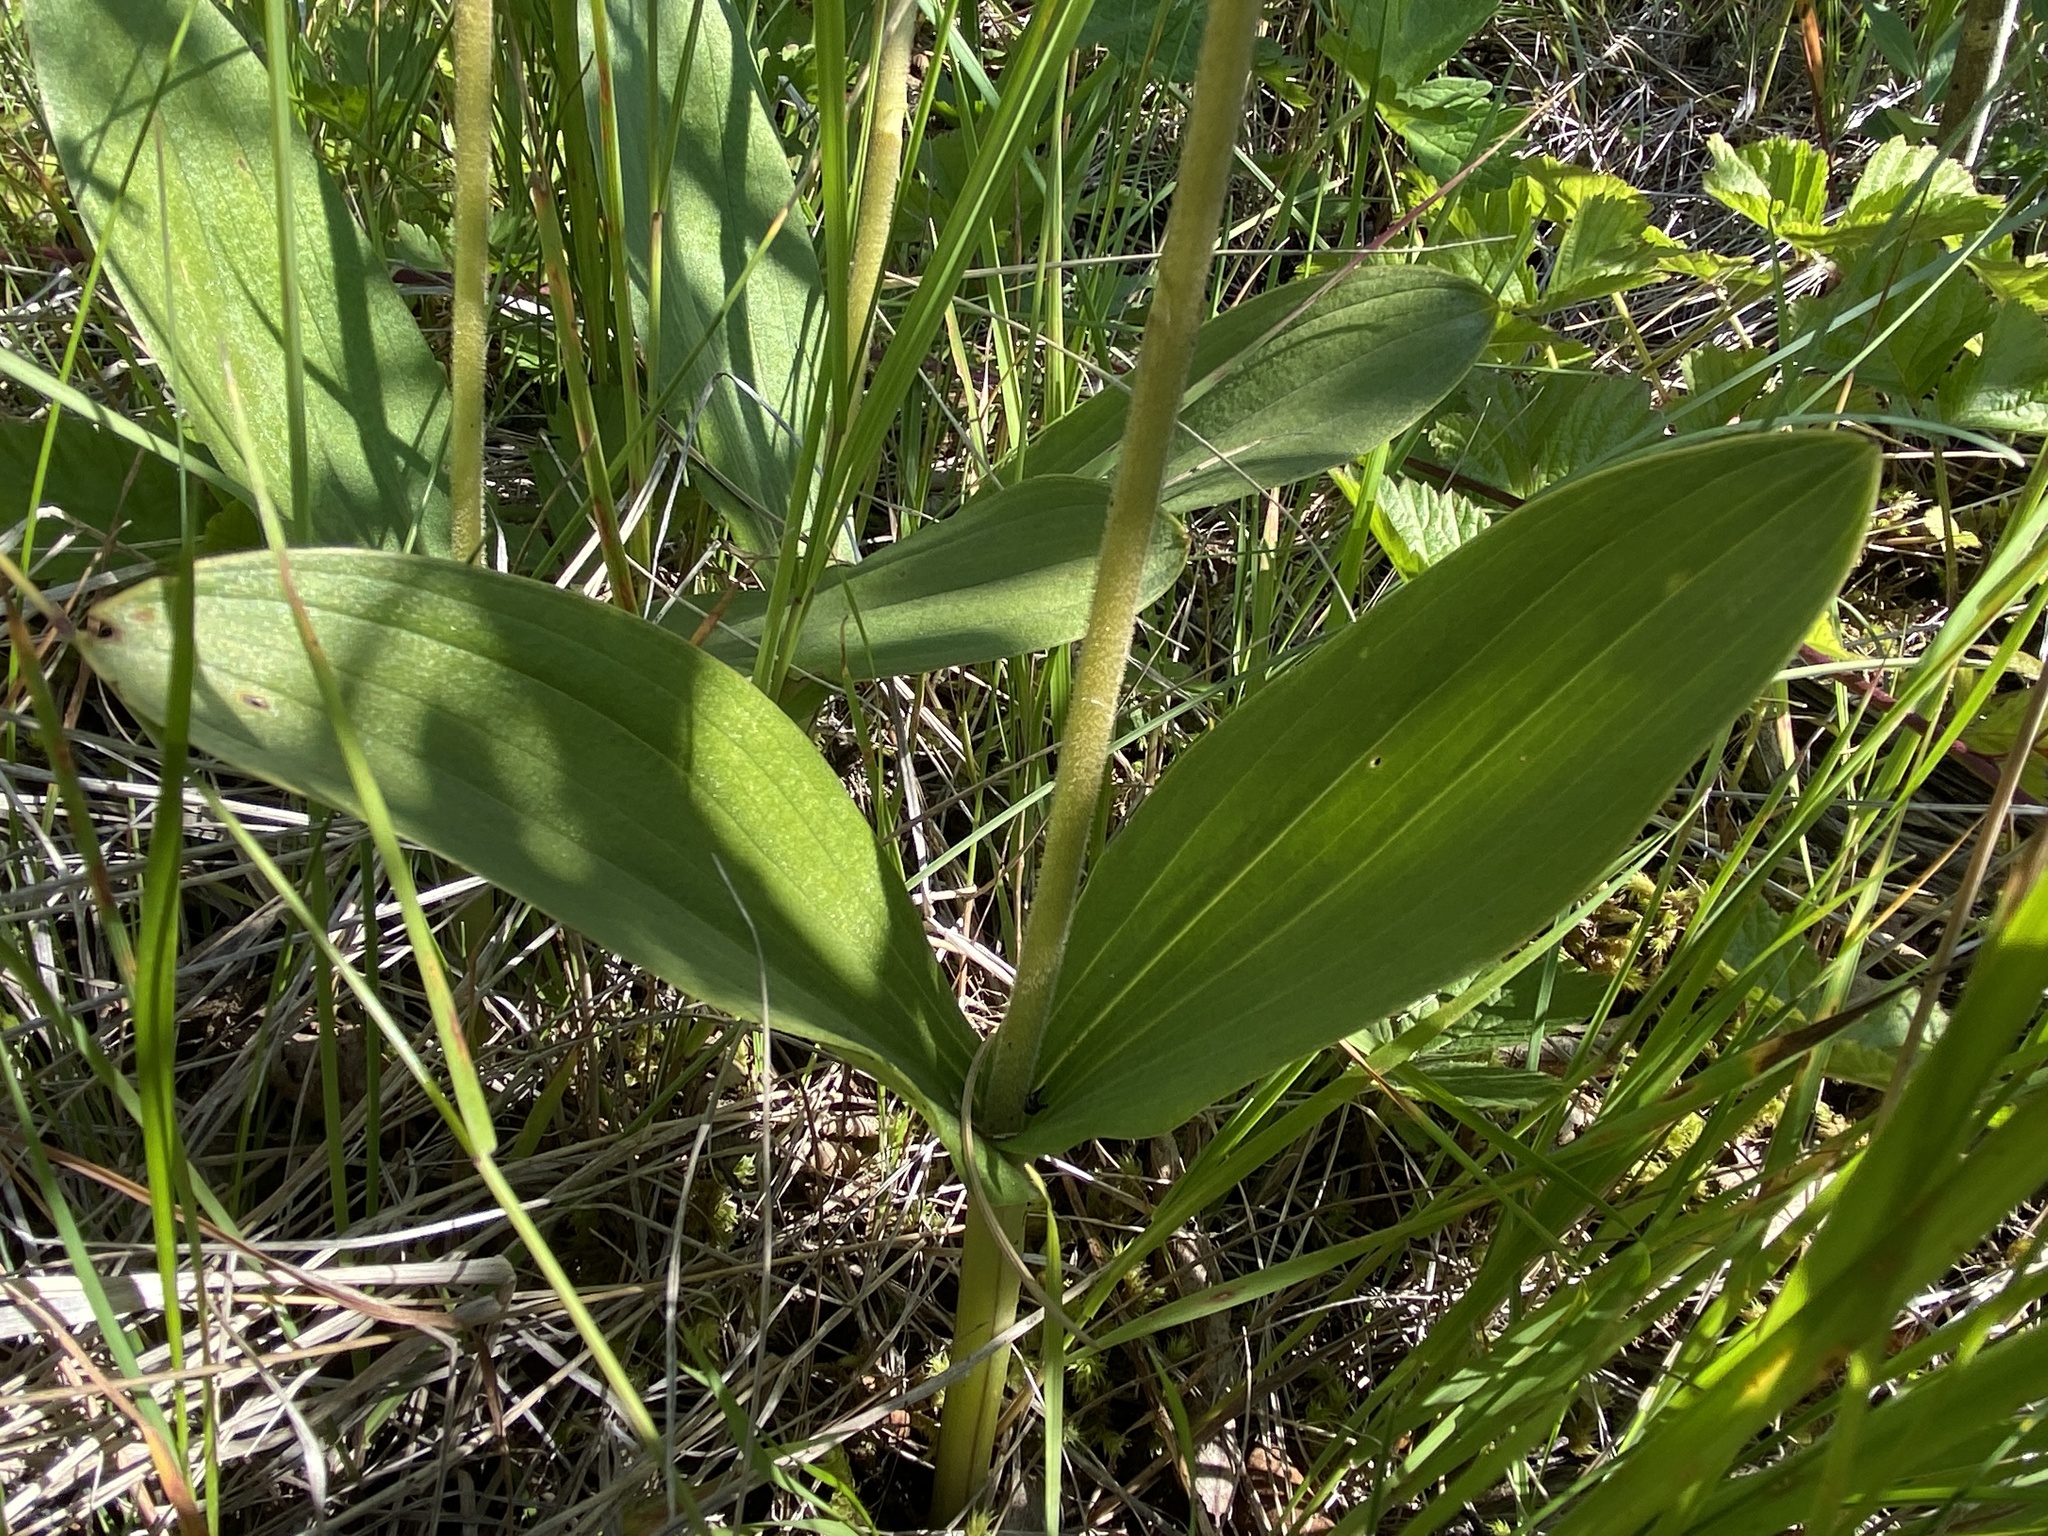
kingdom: Plantae
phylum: Tracheophyta
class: Liliopsida
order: Asparagales
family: Orchidaceae
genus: Neottia
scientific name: Neottia ovata
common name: Common twayblade
